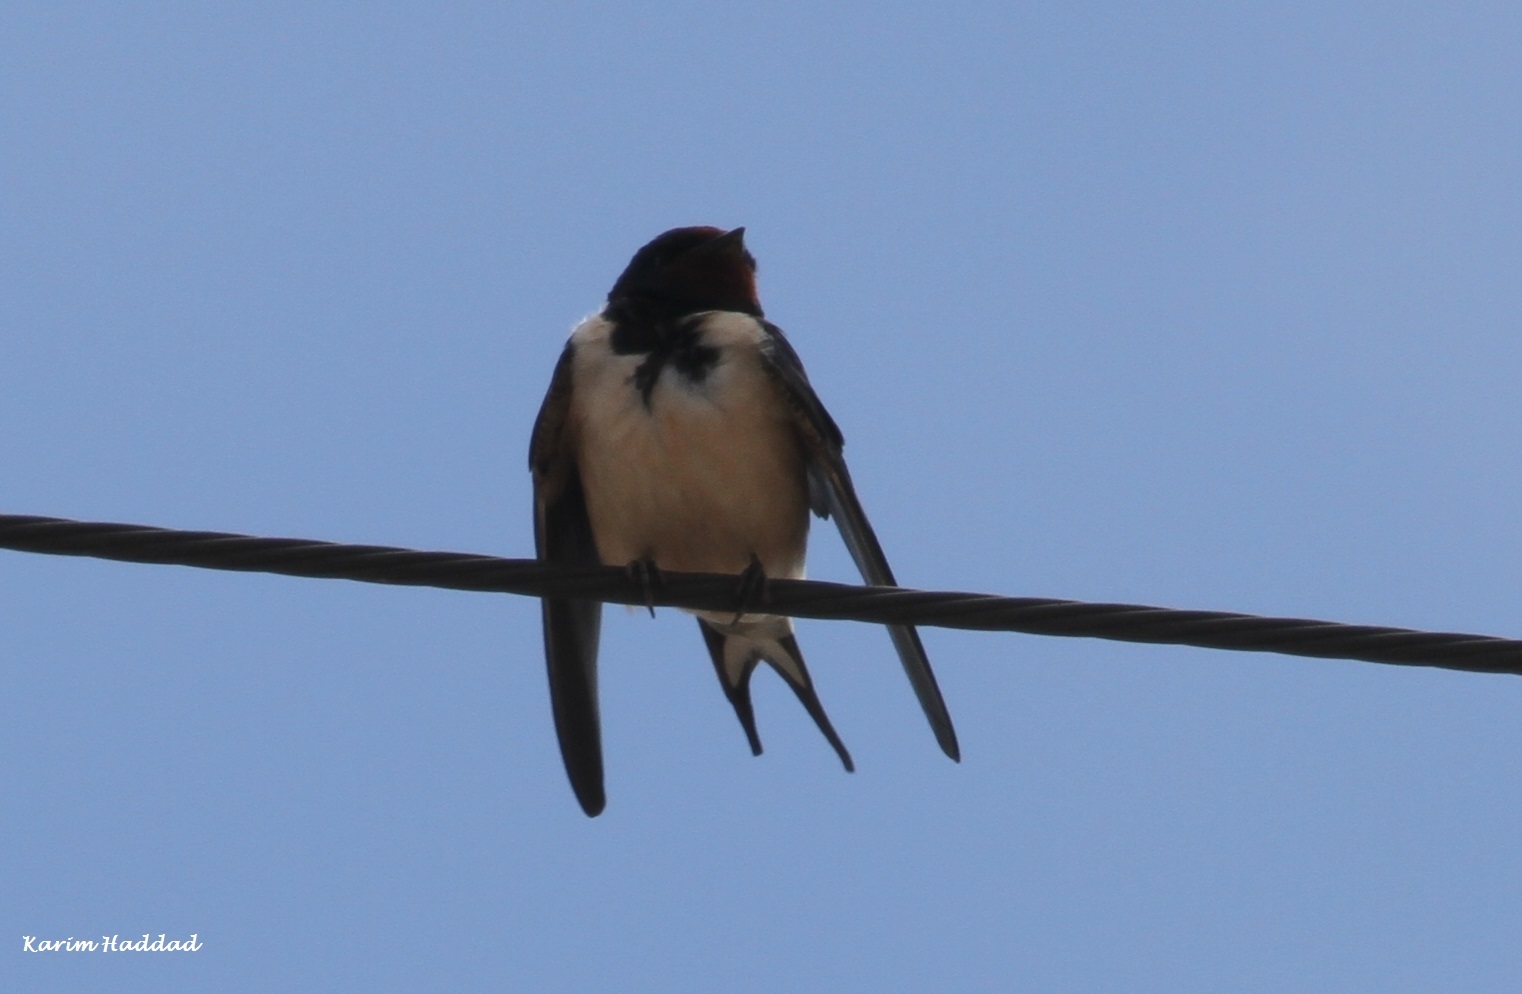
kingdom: Animalia
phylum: Chordata
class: Aves
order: Passeriformes
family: Hirundinidae
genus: Hirundo
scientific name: Hirundo rustica
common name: Barn swallow
